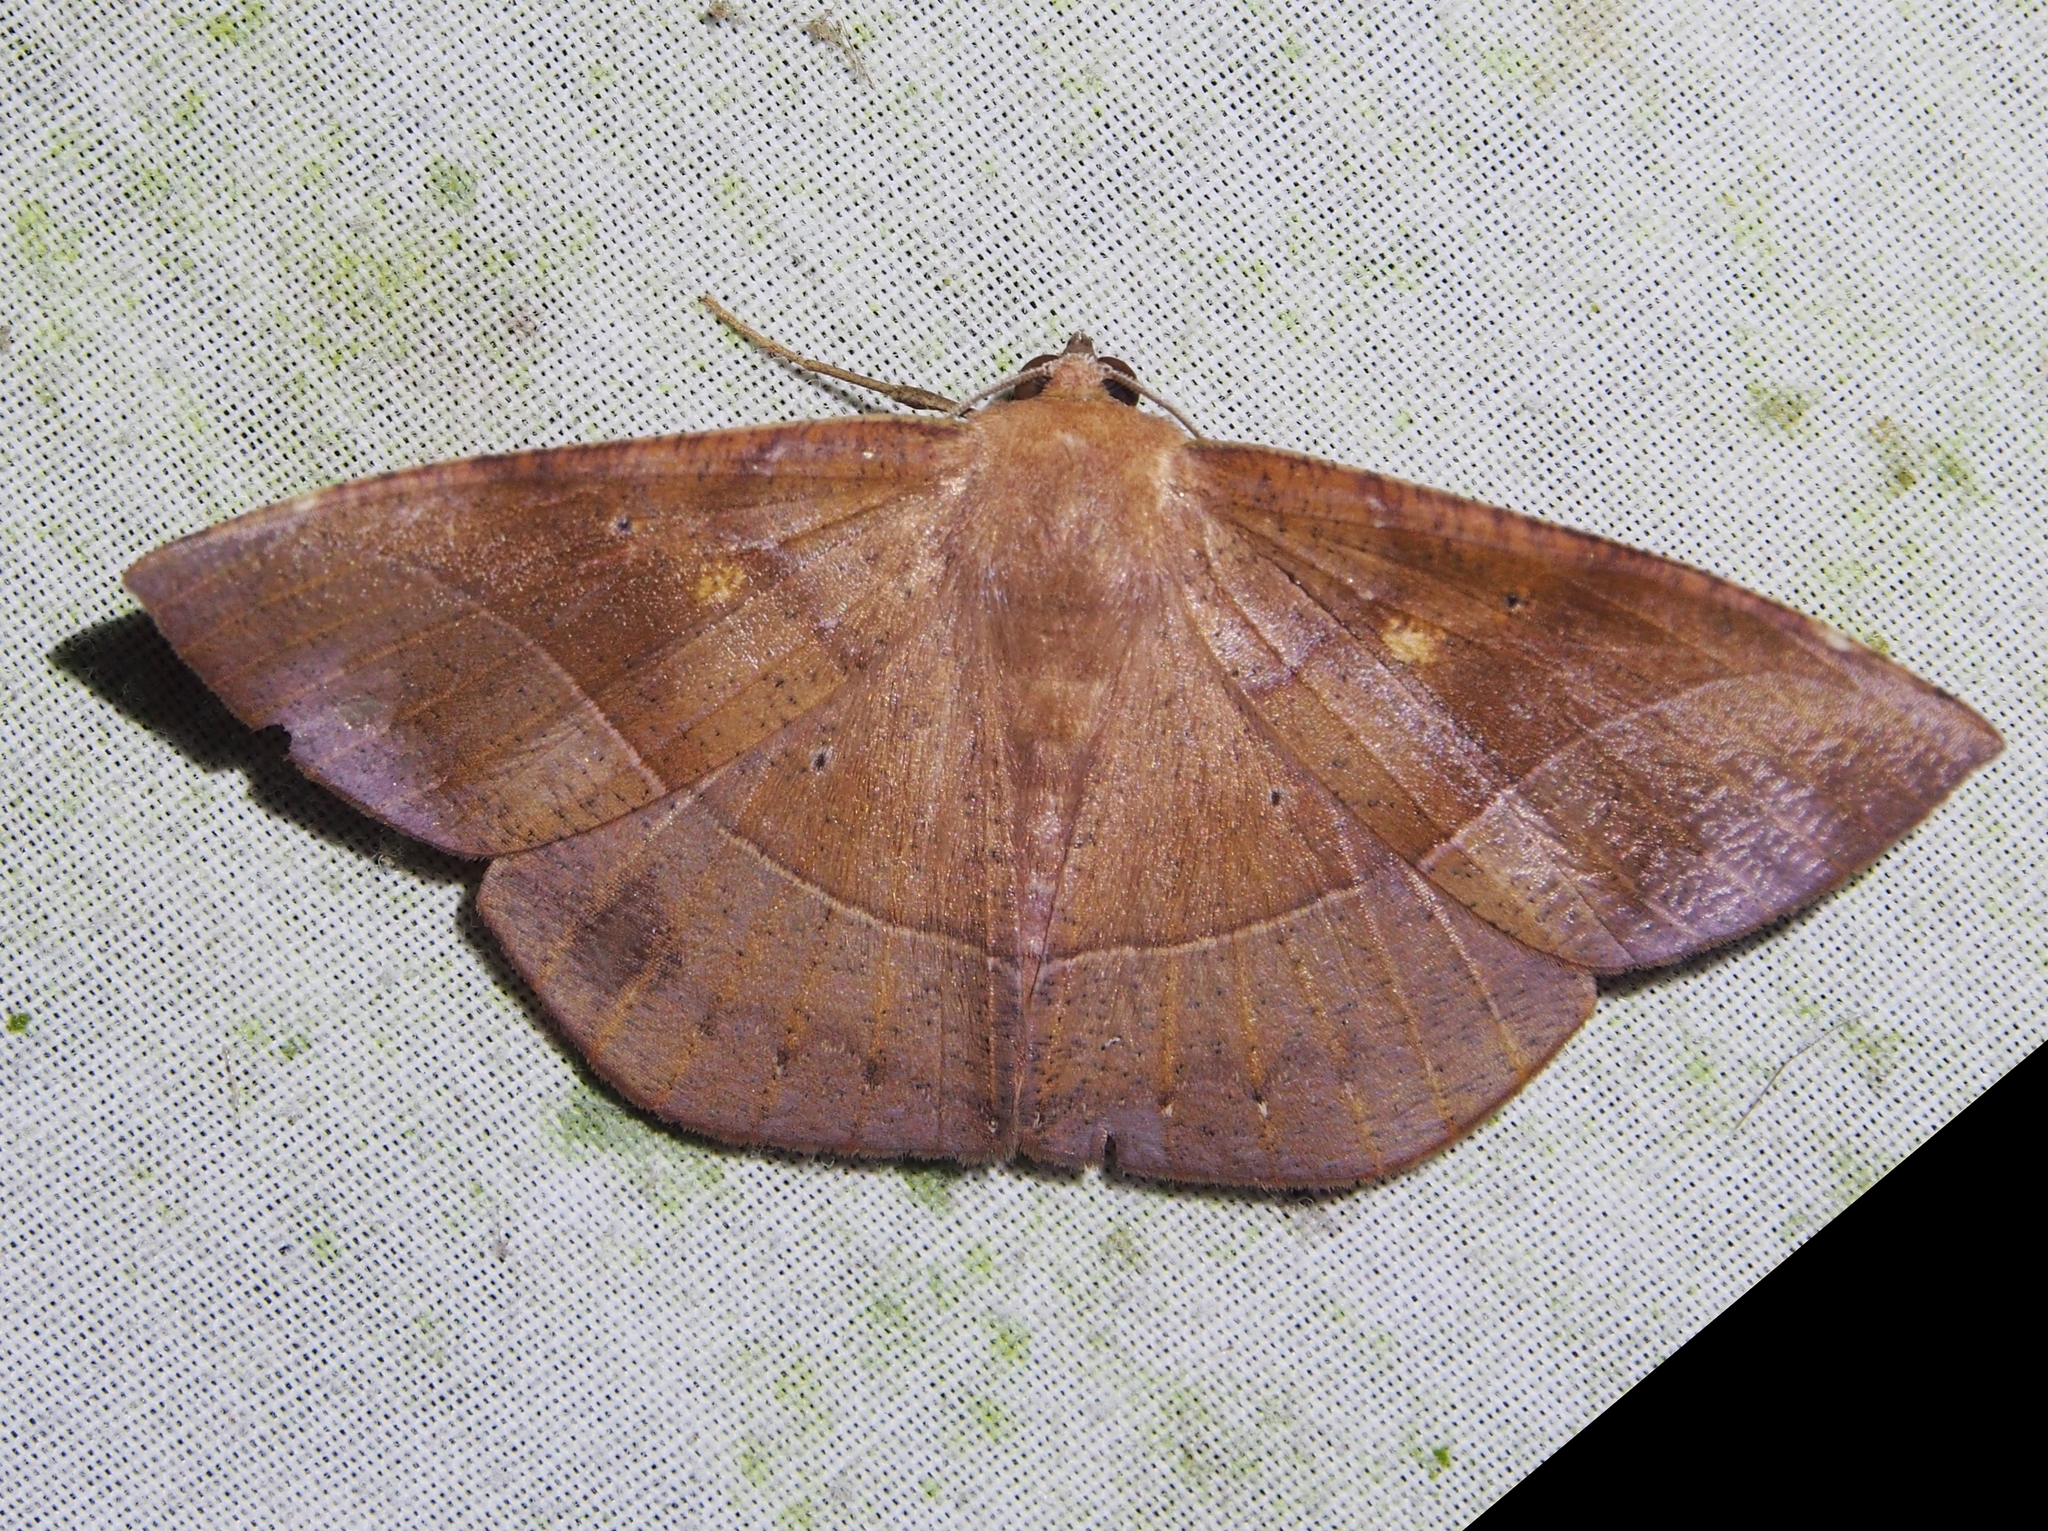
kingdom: Animalia
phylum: Arthropoda
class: Insecta
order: Lepidoptera
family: Geometridae
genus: Herbita
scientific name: Herbita medama
